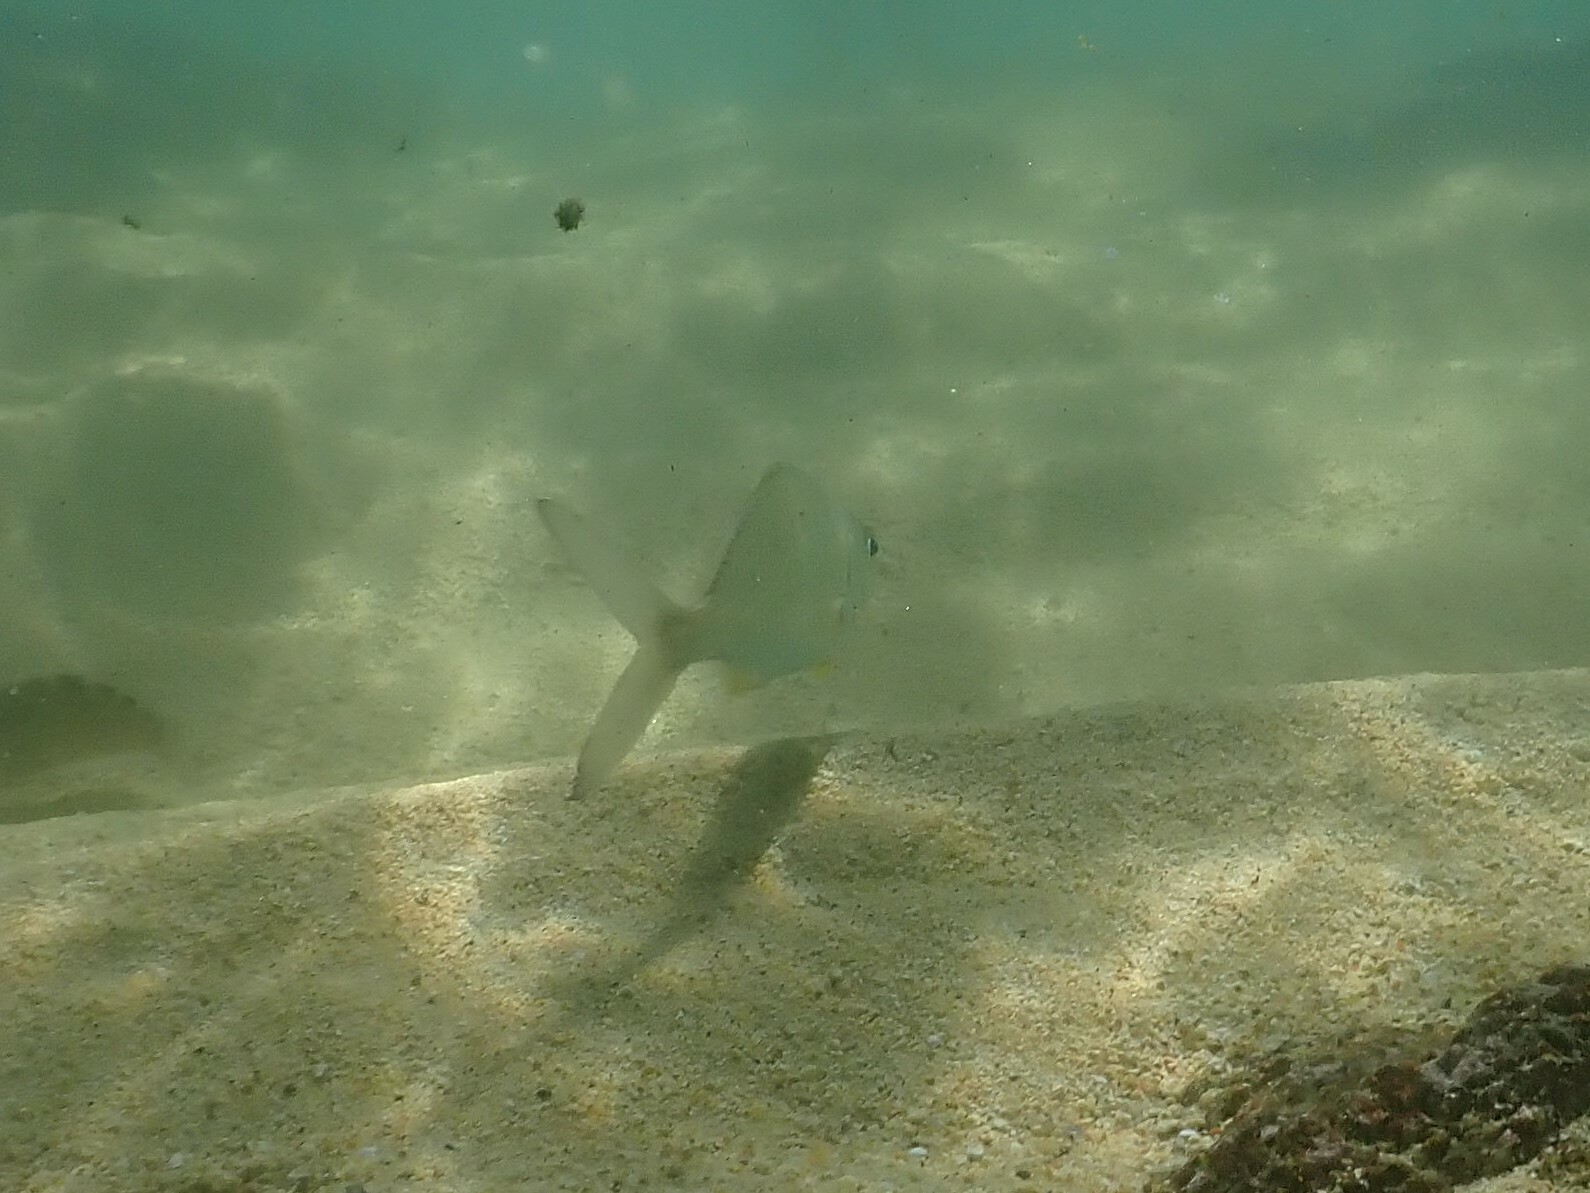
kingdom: Animalia
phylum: Chordata
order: Perciformes
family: Gerreidae
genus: Gerres
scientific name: Gerres simillimus
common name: Yellow fin mojarra
